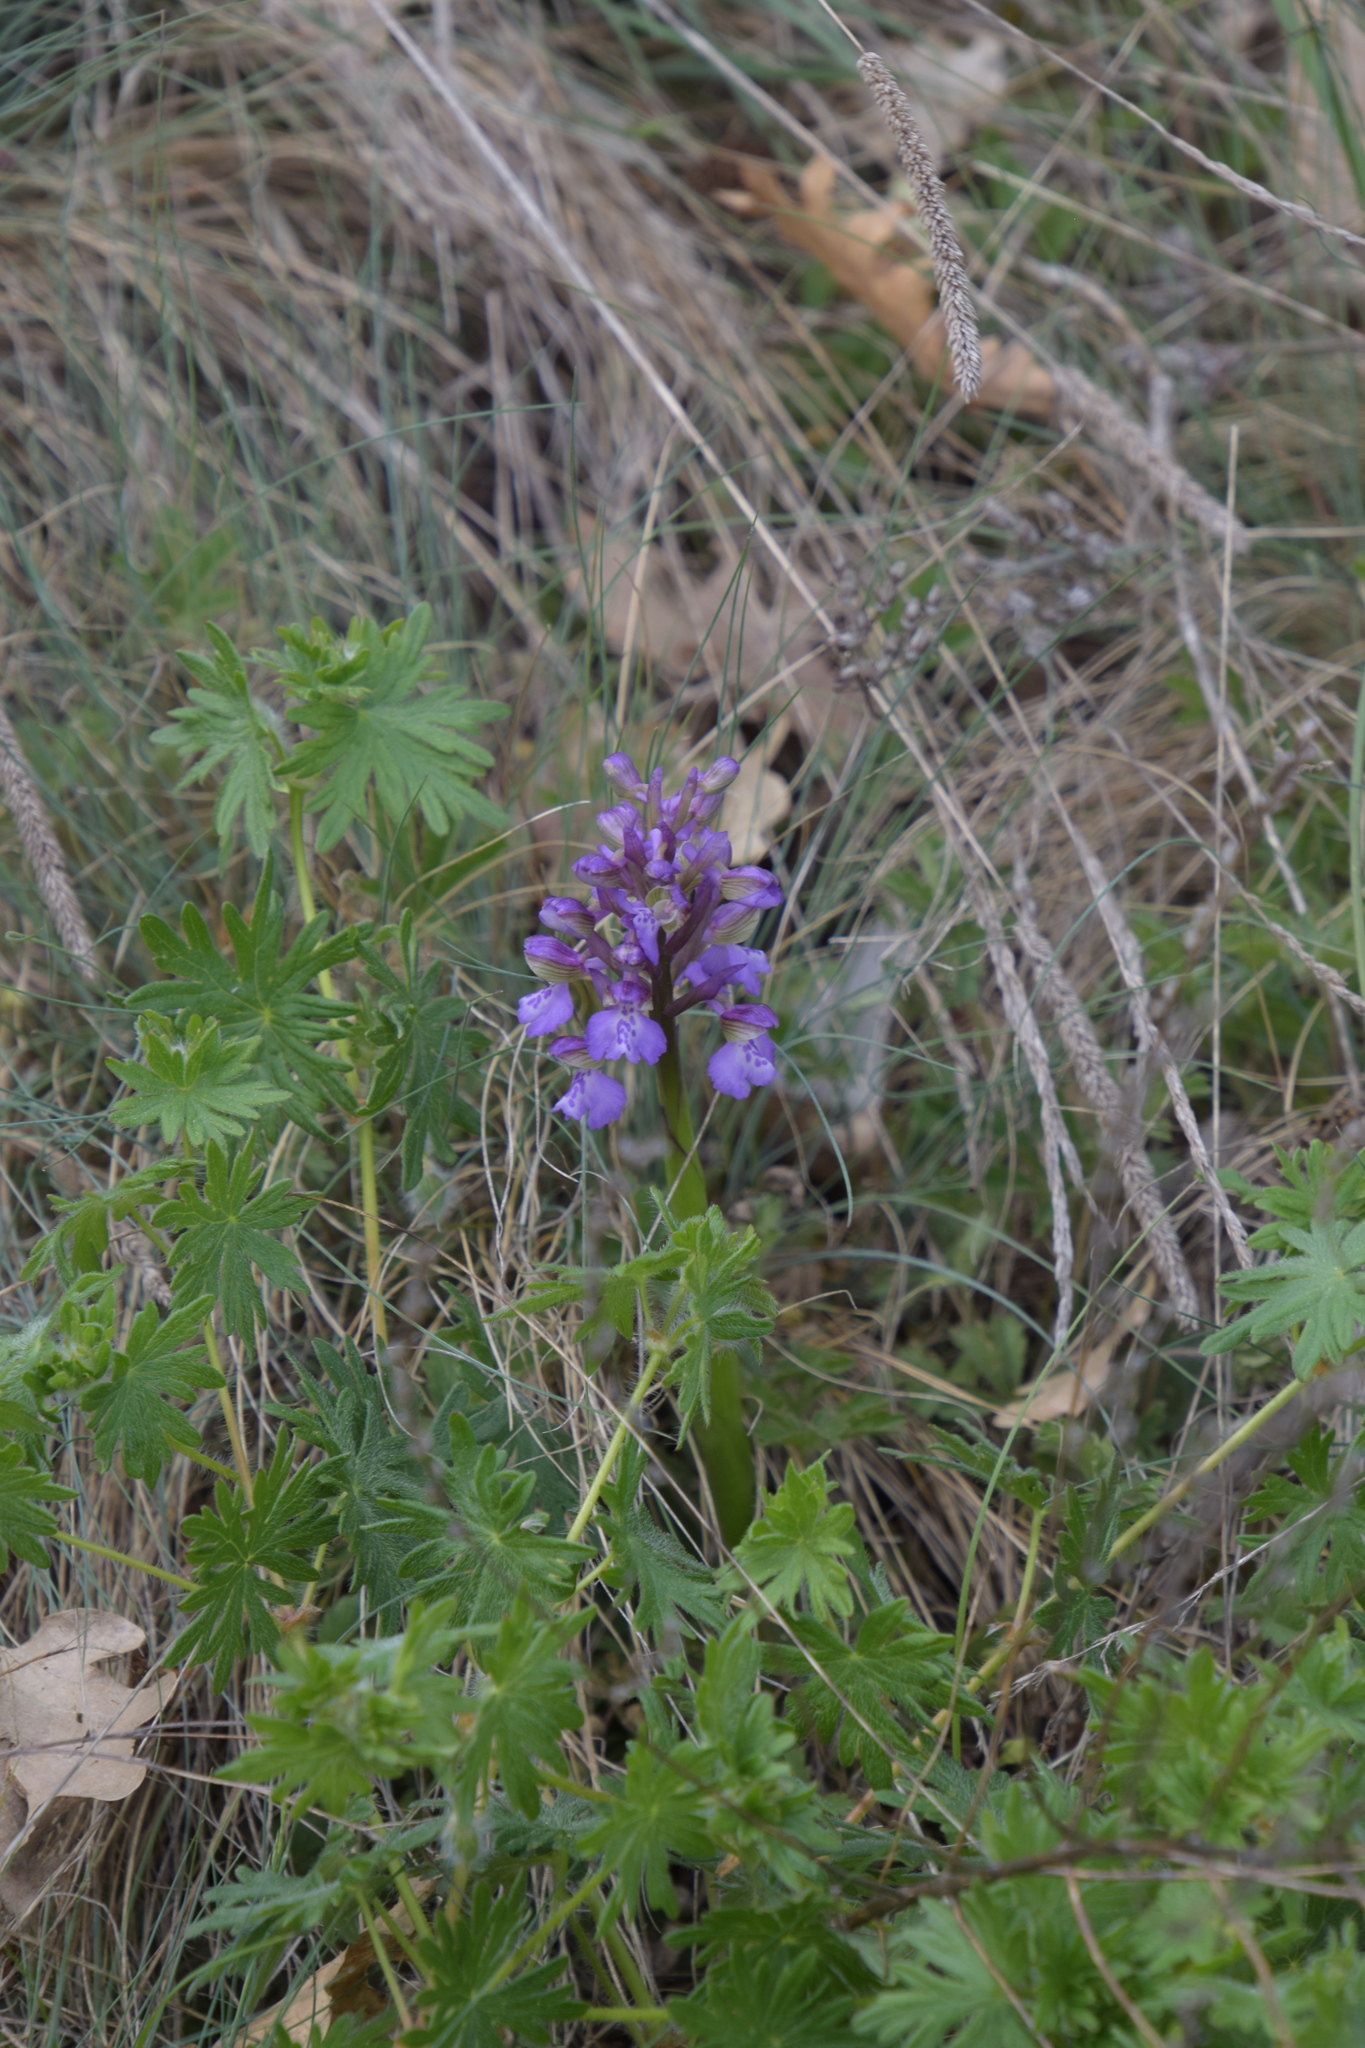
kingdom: Plantae
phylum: Tracheophyta
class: Liliopsida
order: Asparagales
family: Orchidaceae
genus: Anacamptis
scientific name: Anacamptis morio
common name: Green-winged orchid
